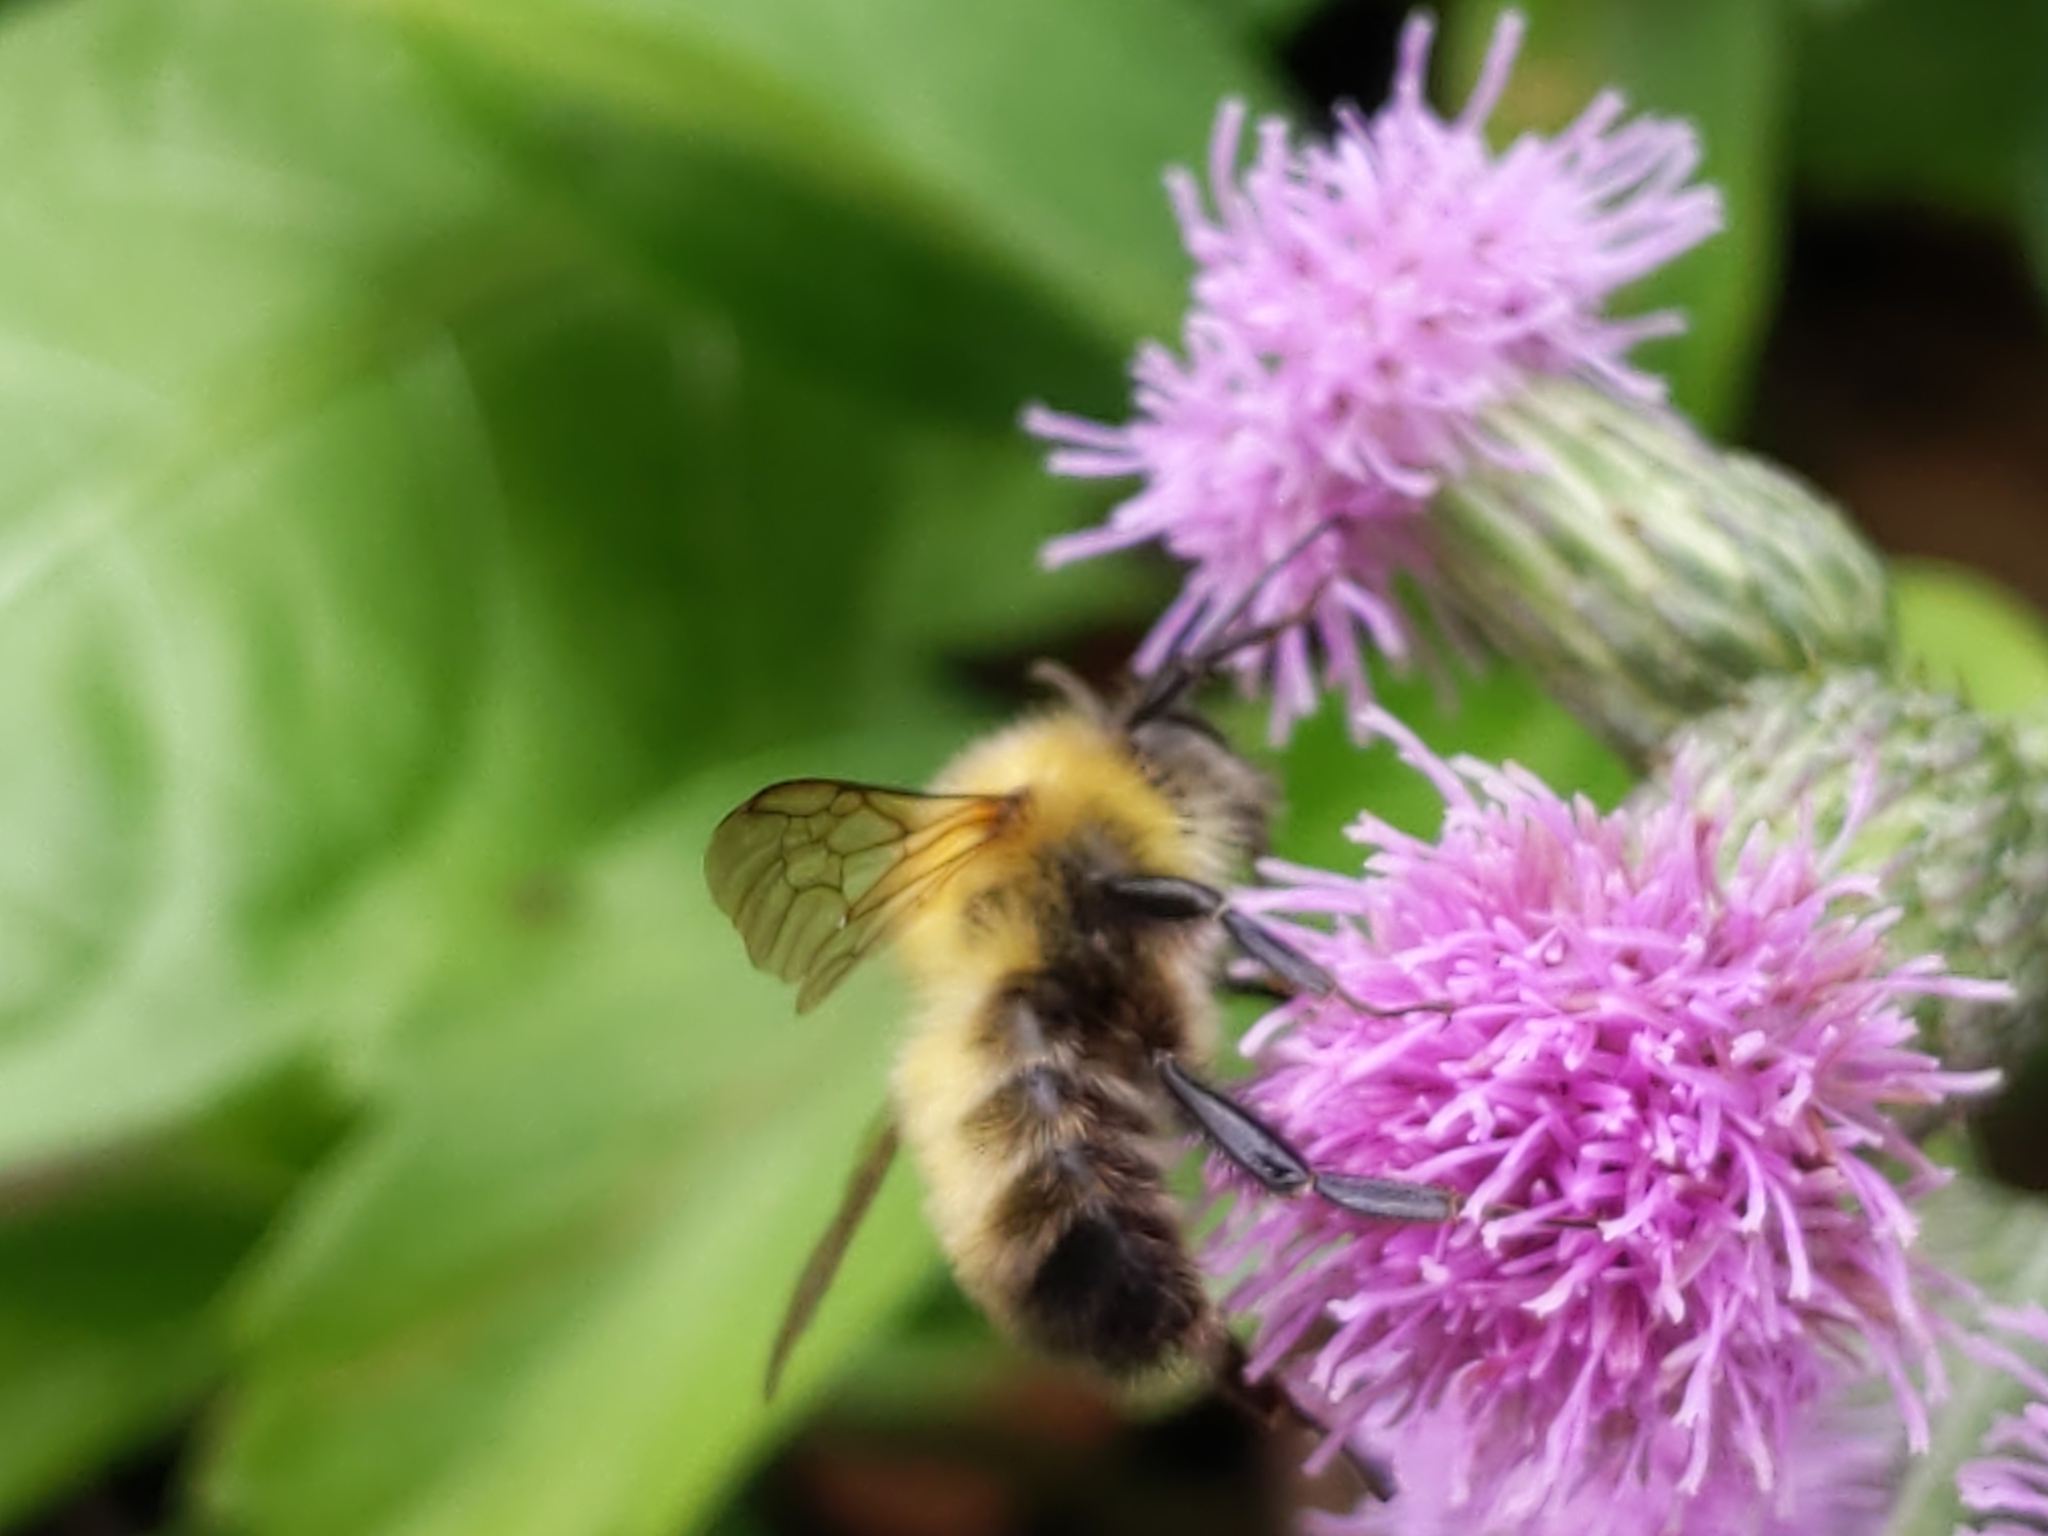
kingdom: Animalia
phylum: Arthropoda
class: Insecta
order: Hymenoptera
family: Apidae
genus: Bombus
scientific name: Bombus perplexus
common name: Confusing bumble bee
